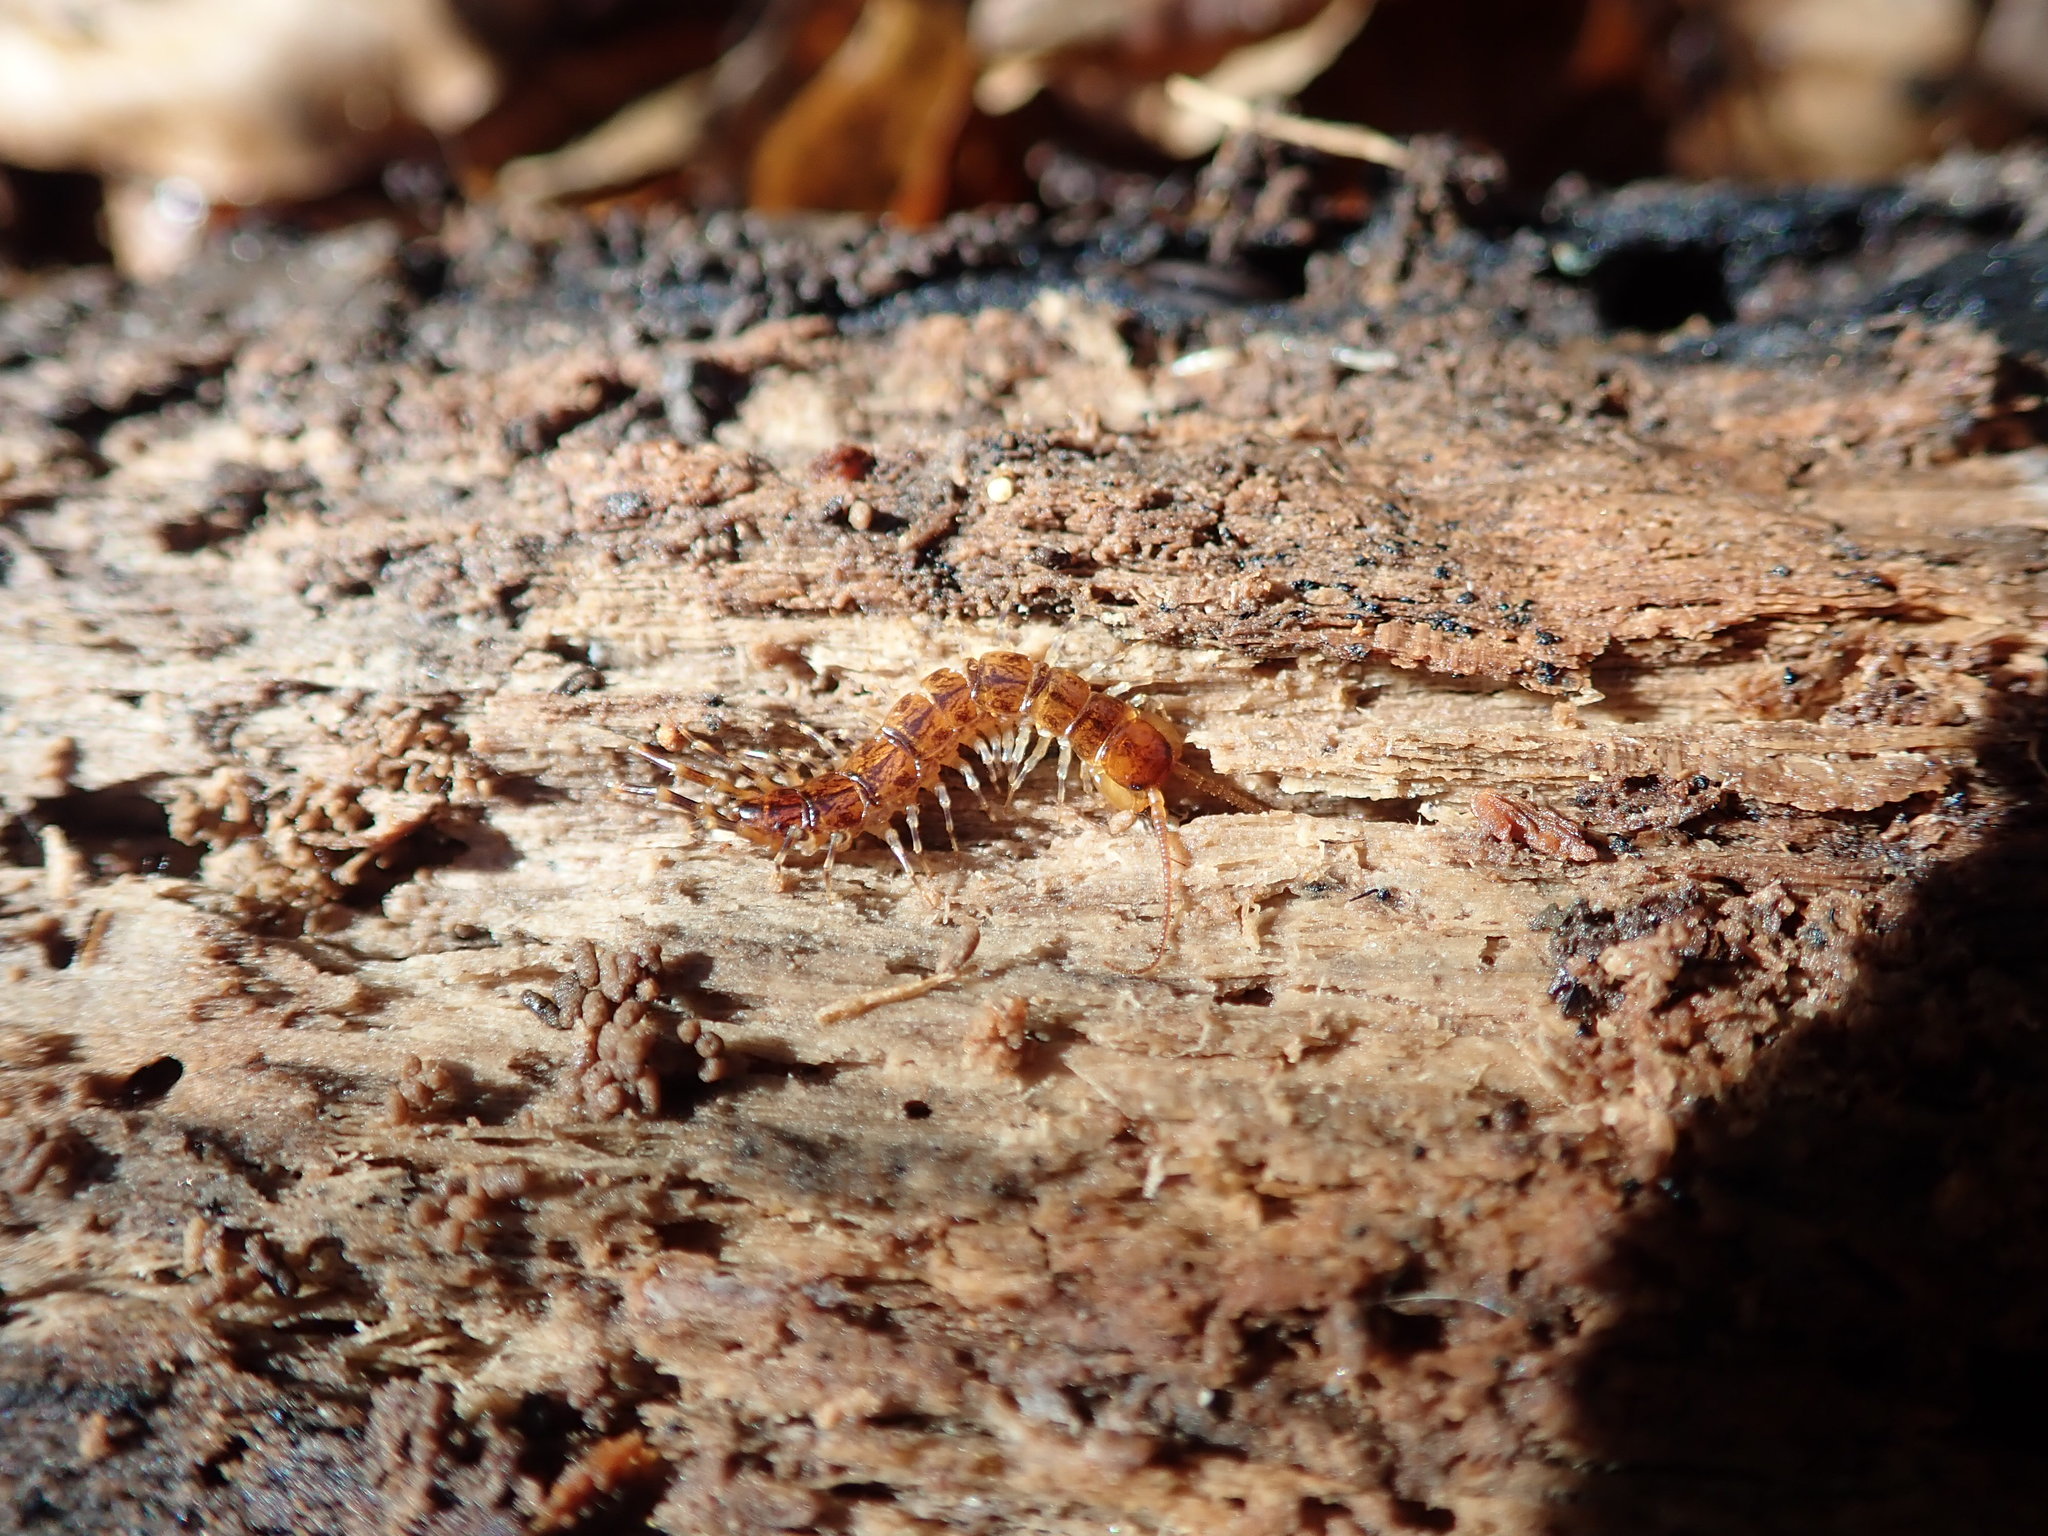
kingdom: Animalia
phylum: Arthropoda
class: Chilopoda
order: Lithobiomorpha
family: Lithobiidae
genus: Lithobius
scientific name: Lithobius variegatus
